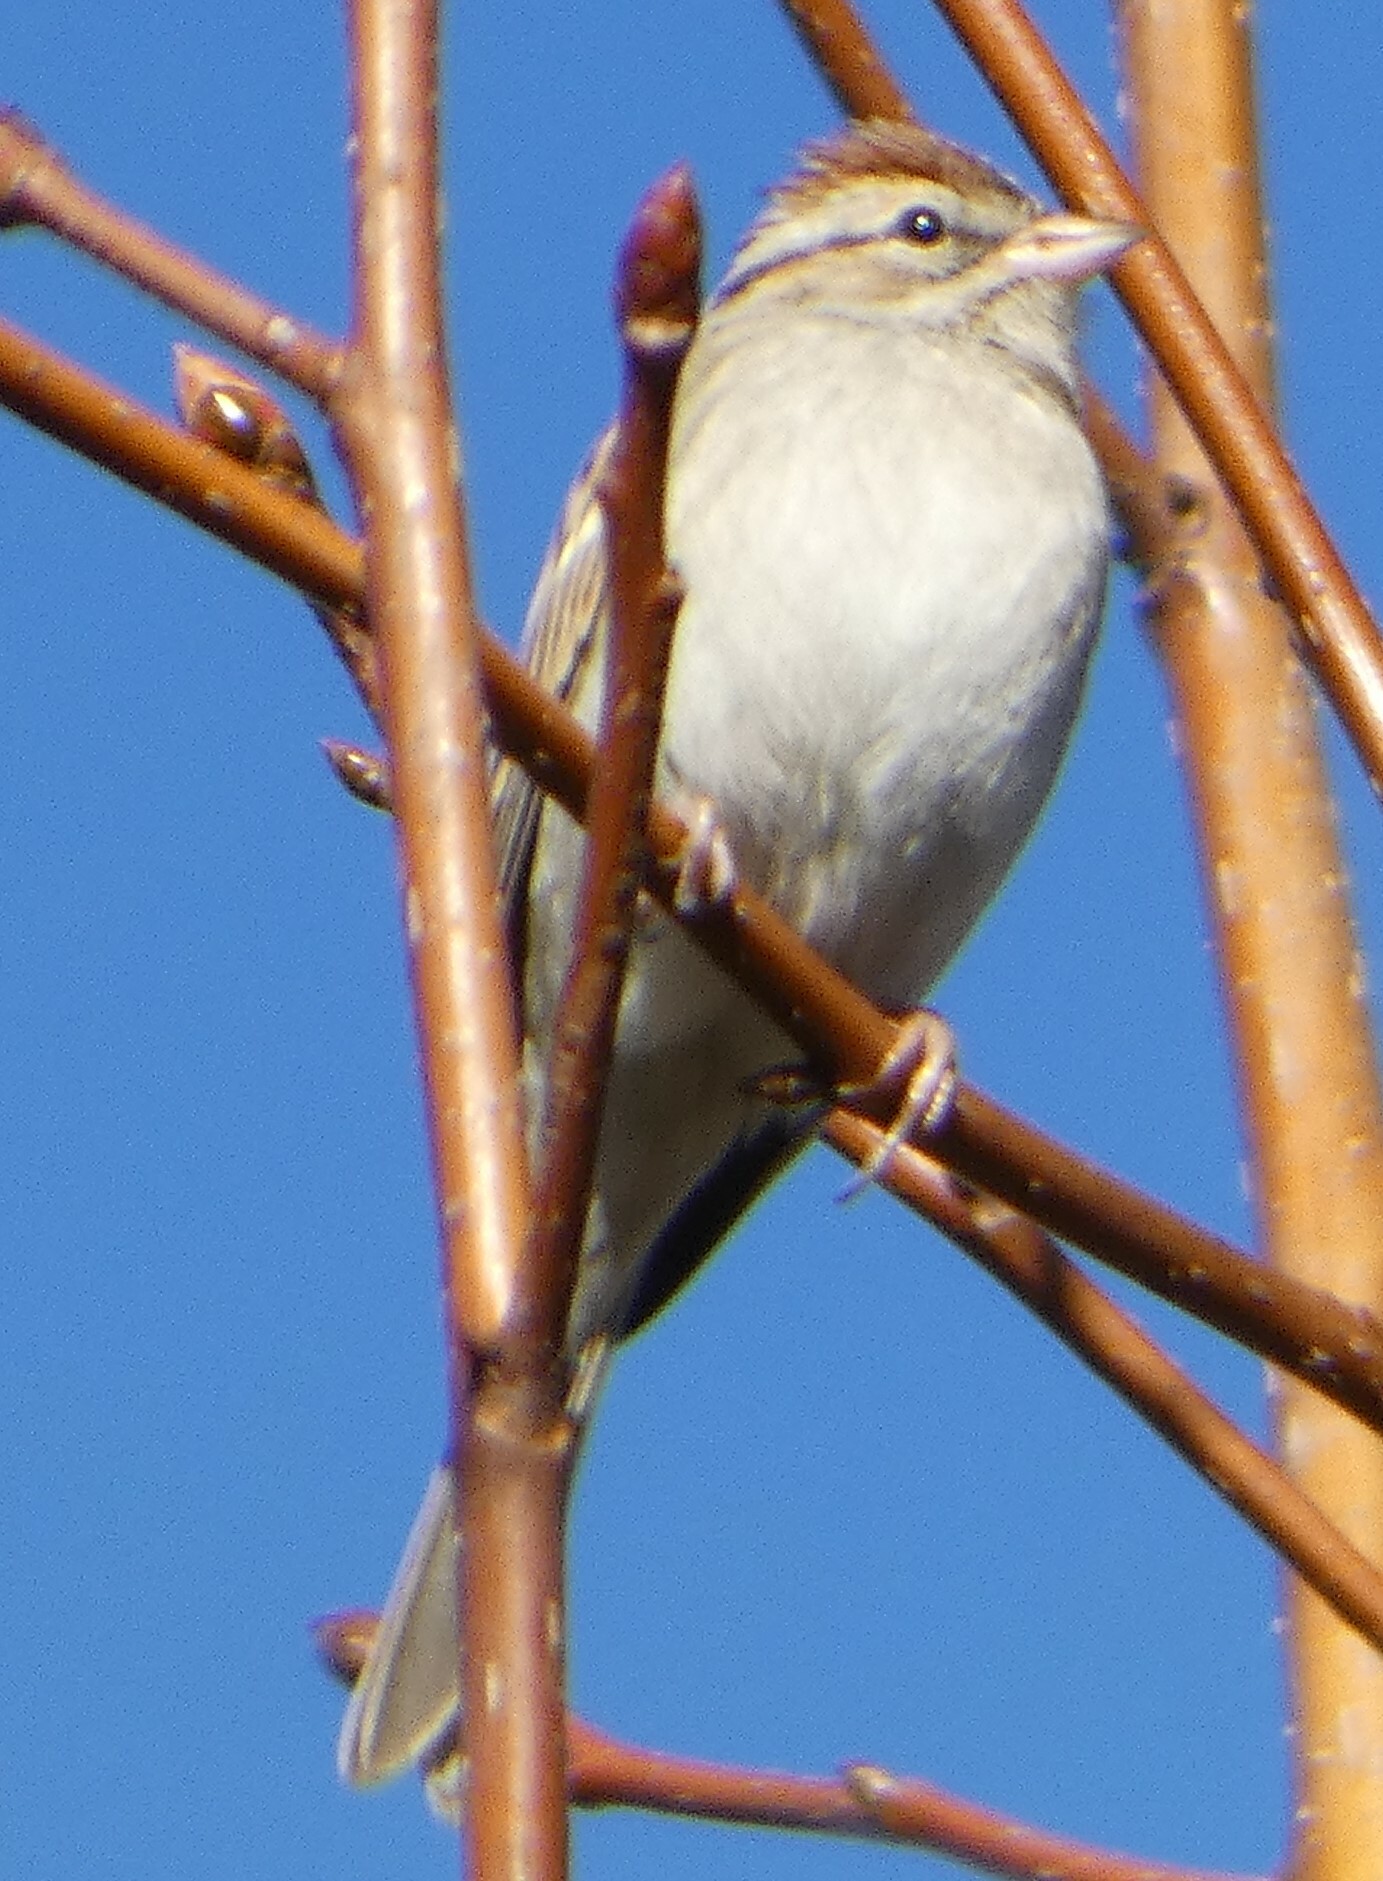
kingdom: Animalia
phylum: Chordata
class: Aves
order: Passeriformes
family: Passerellidae
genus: Spizella
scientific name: Spizella passerina
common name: Chipping sparrow
